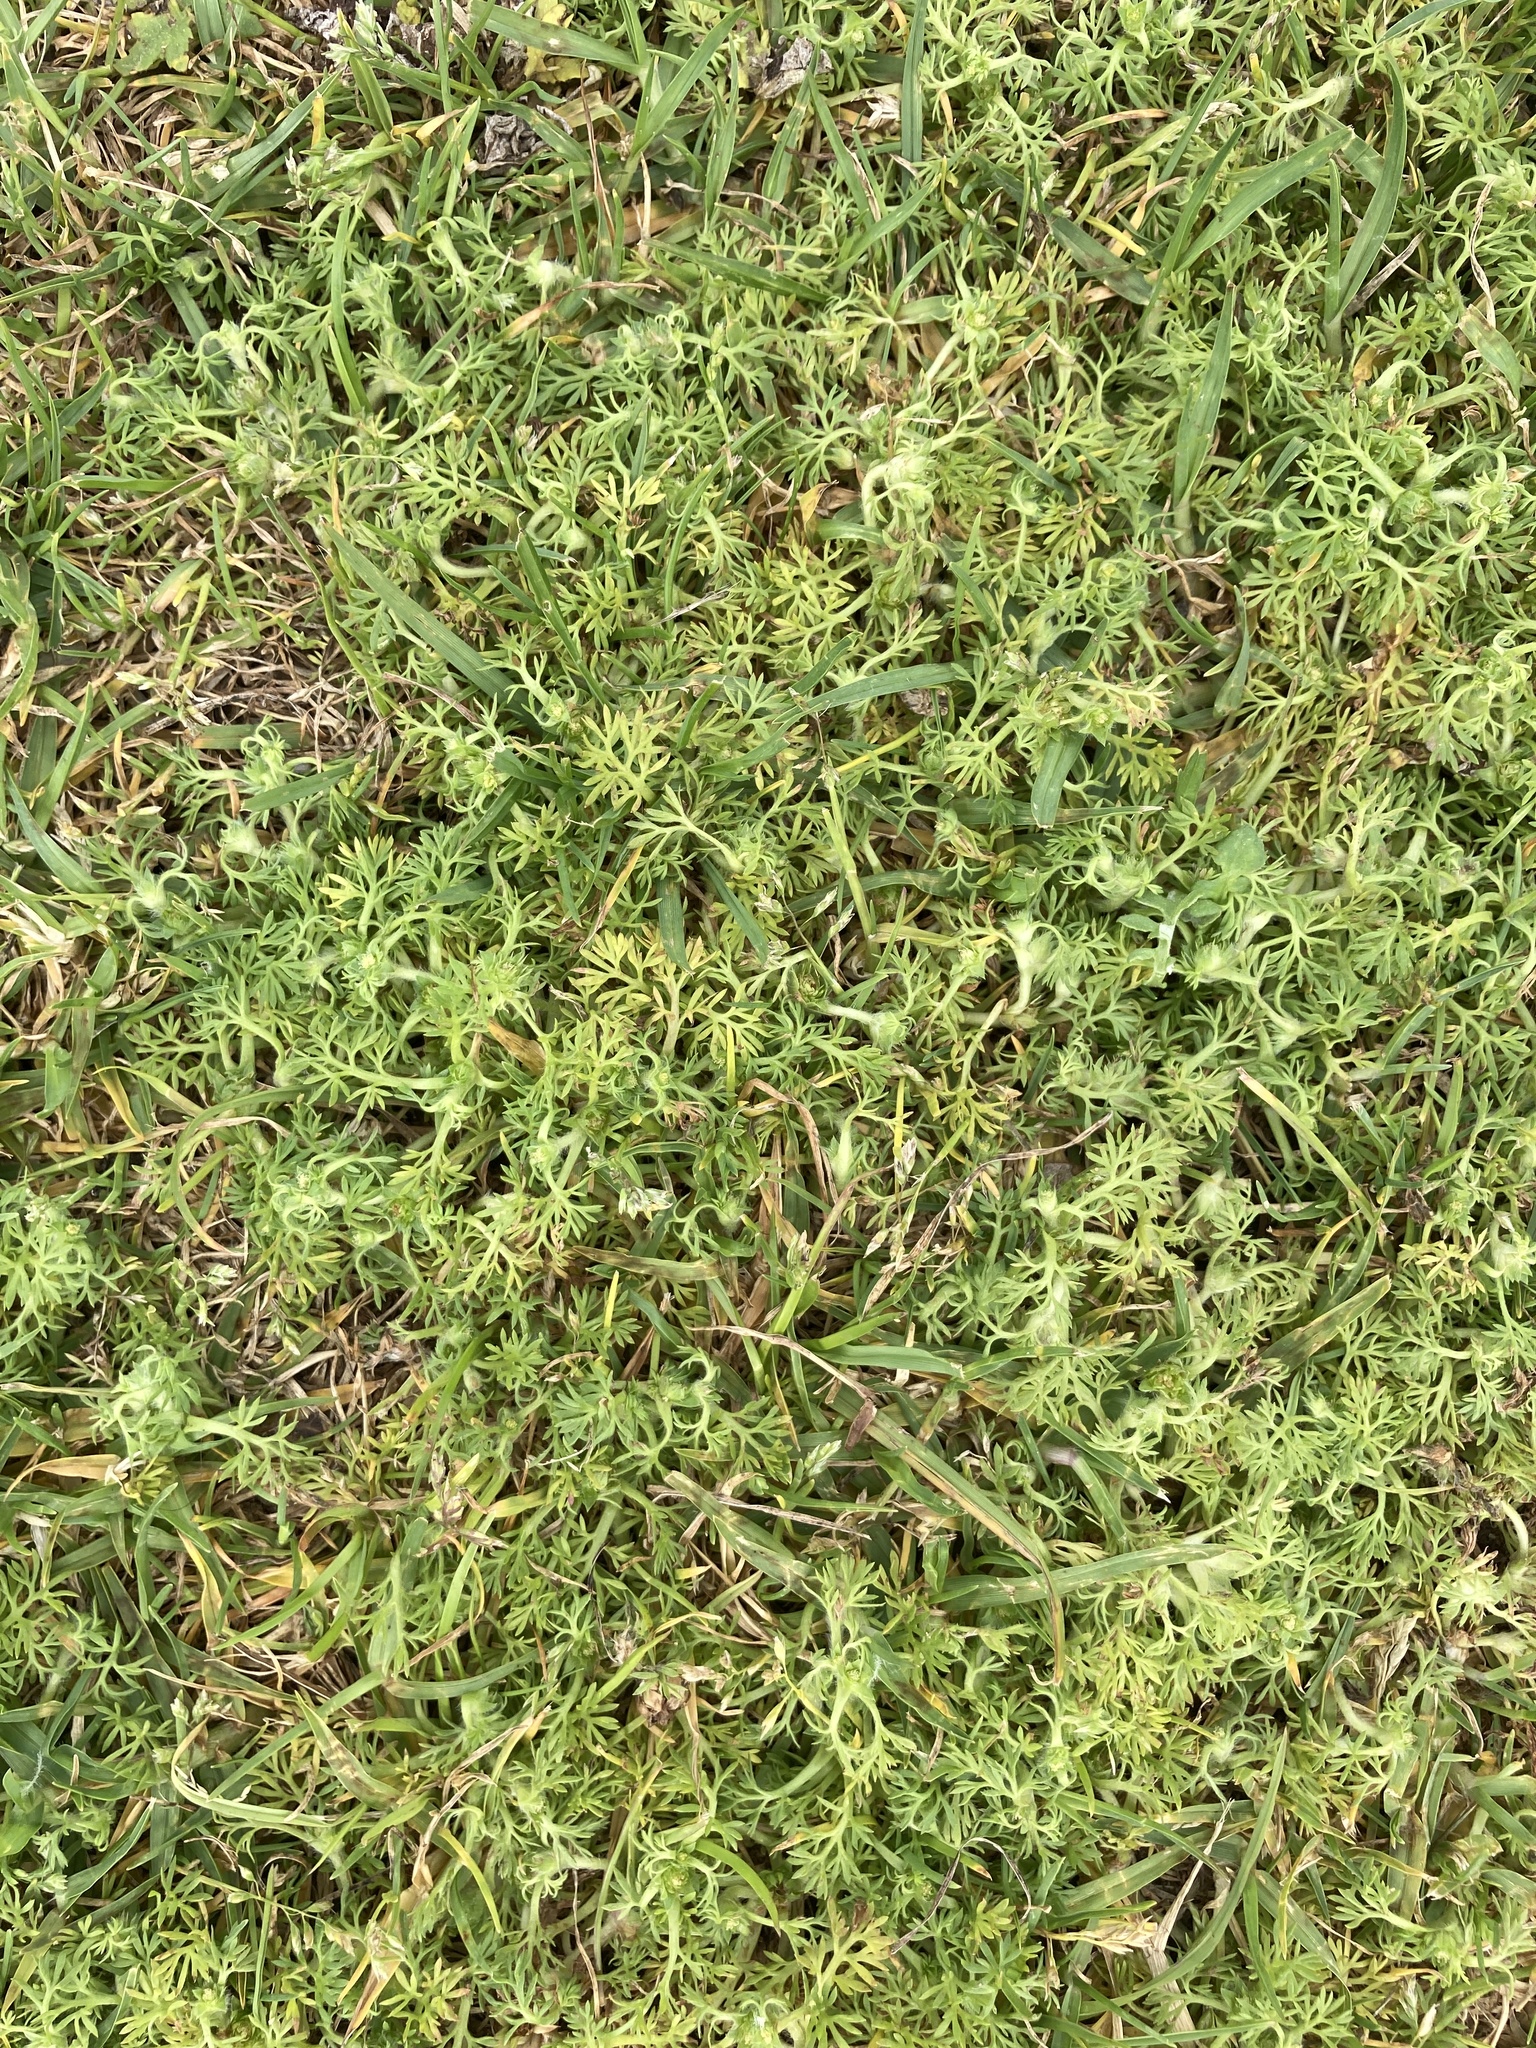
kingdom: Plantae
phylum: Tracheophyta
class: Magnoliopsida
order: Asterales
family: Asteraceae
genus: Soliva
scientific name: Soliva sessilis
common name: Field burrweed
